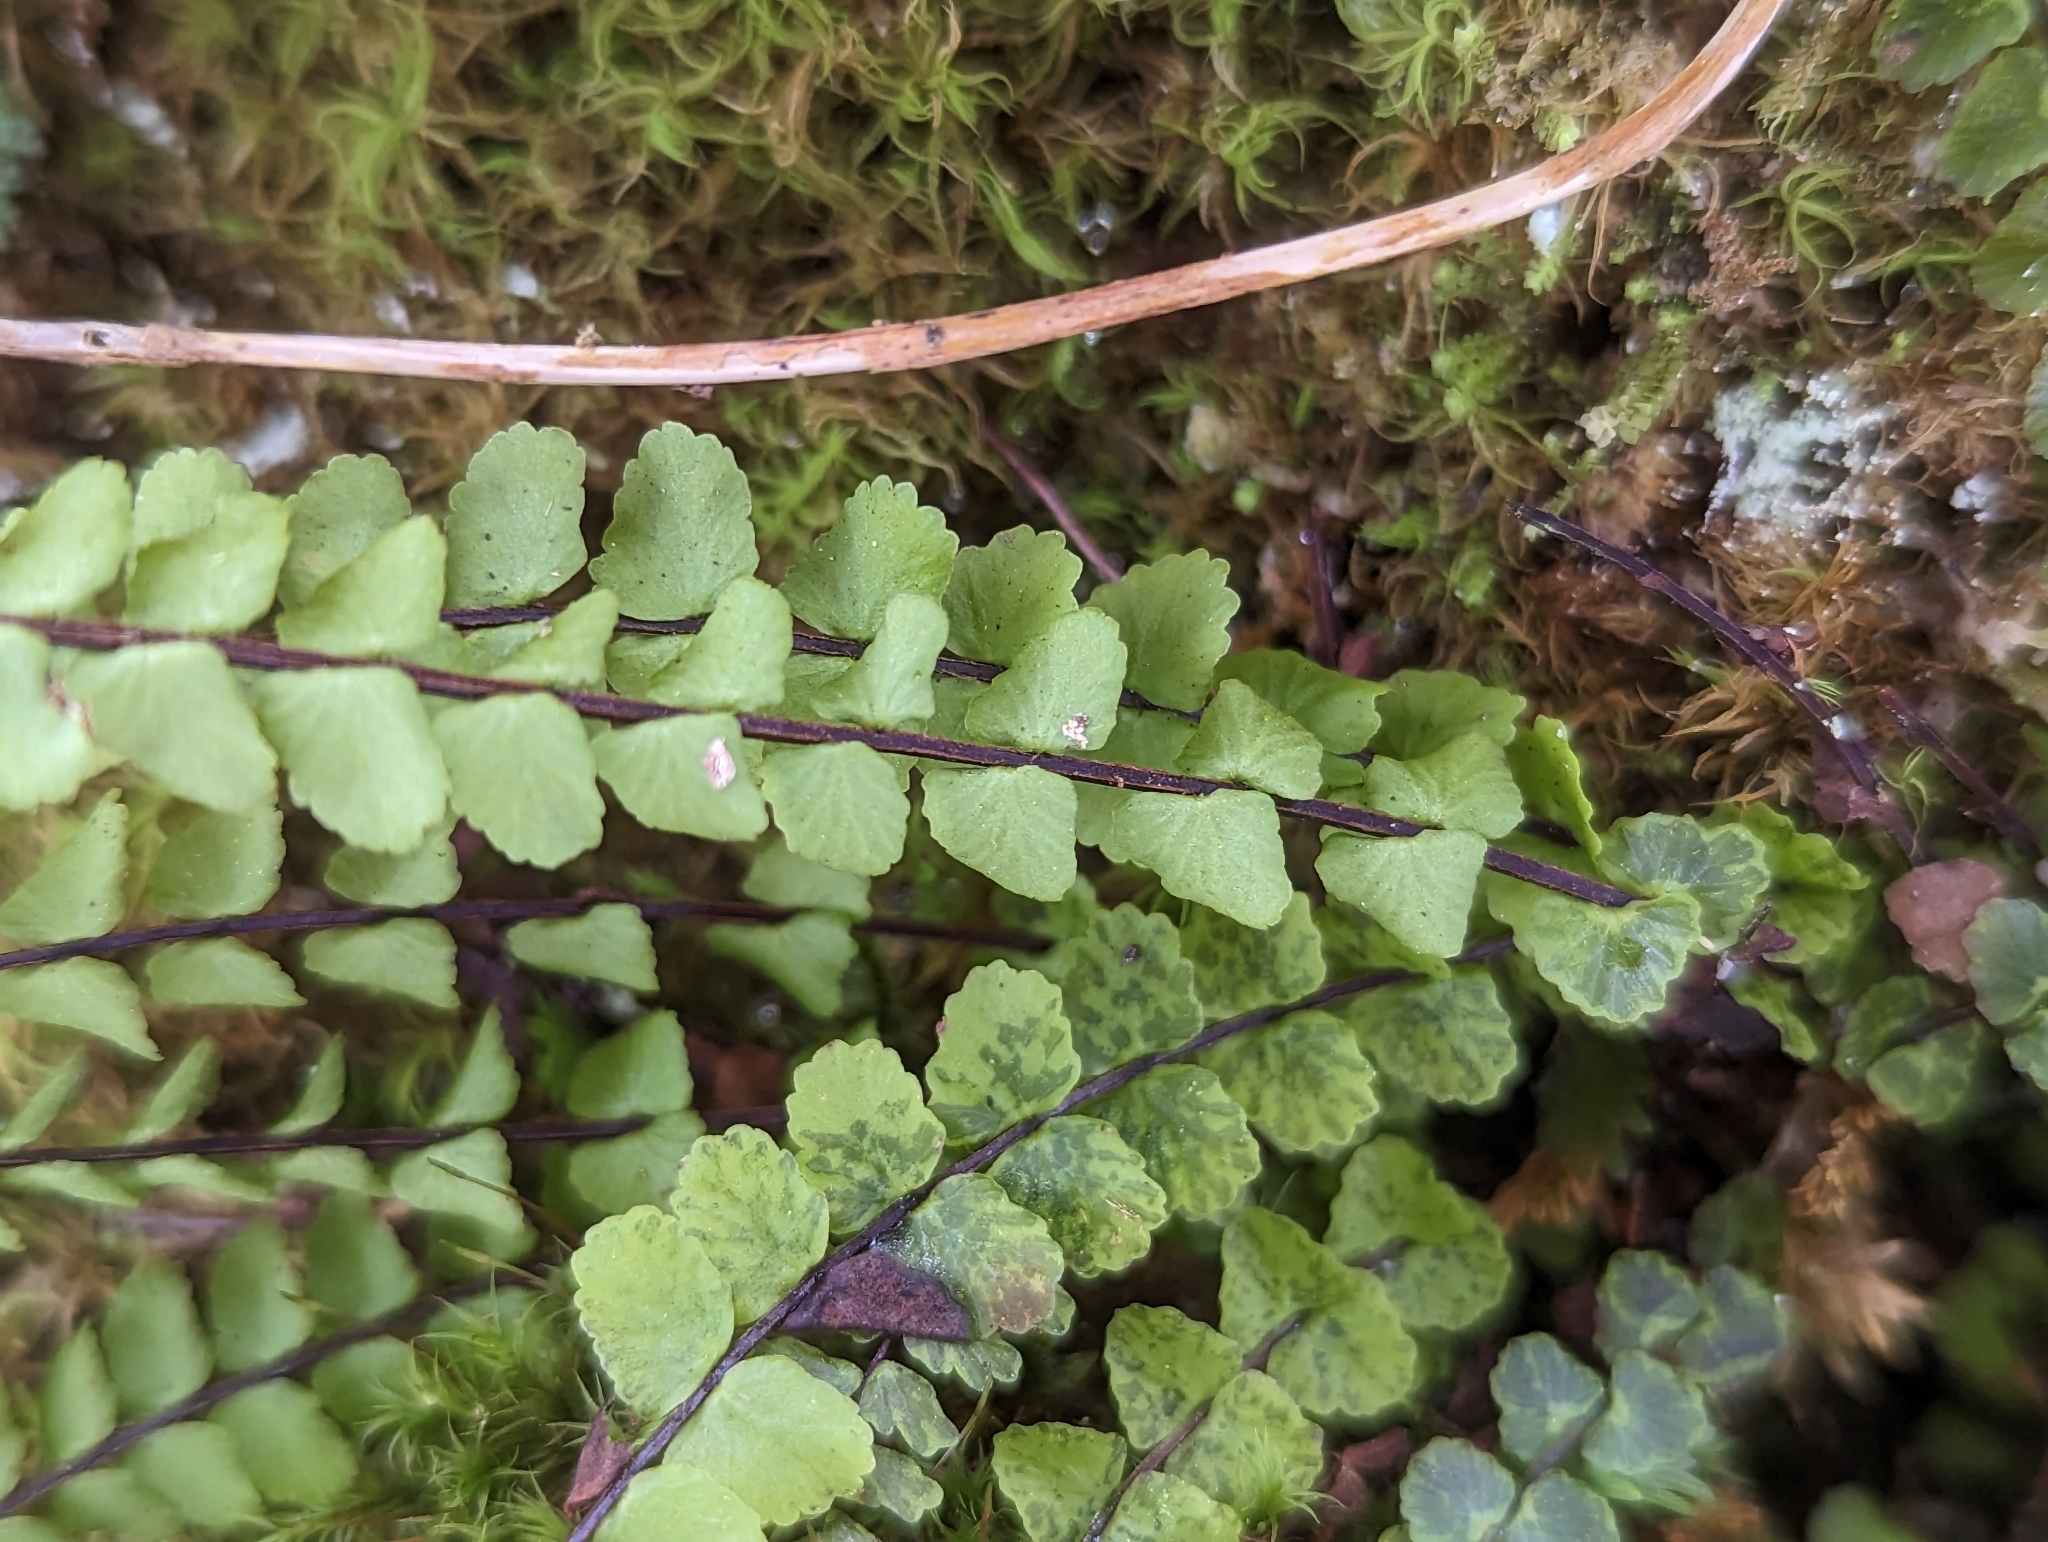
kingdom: Plantae
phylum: Tracheophyta
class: Polypodiopsida
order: Polypodiales
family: Aspleniaceae
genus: Asplenium
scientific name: Asplenium trichomanes
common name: Maidenhair spleenwort
